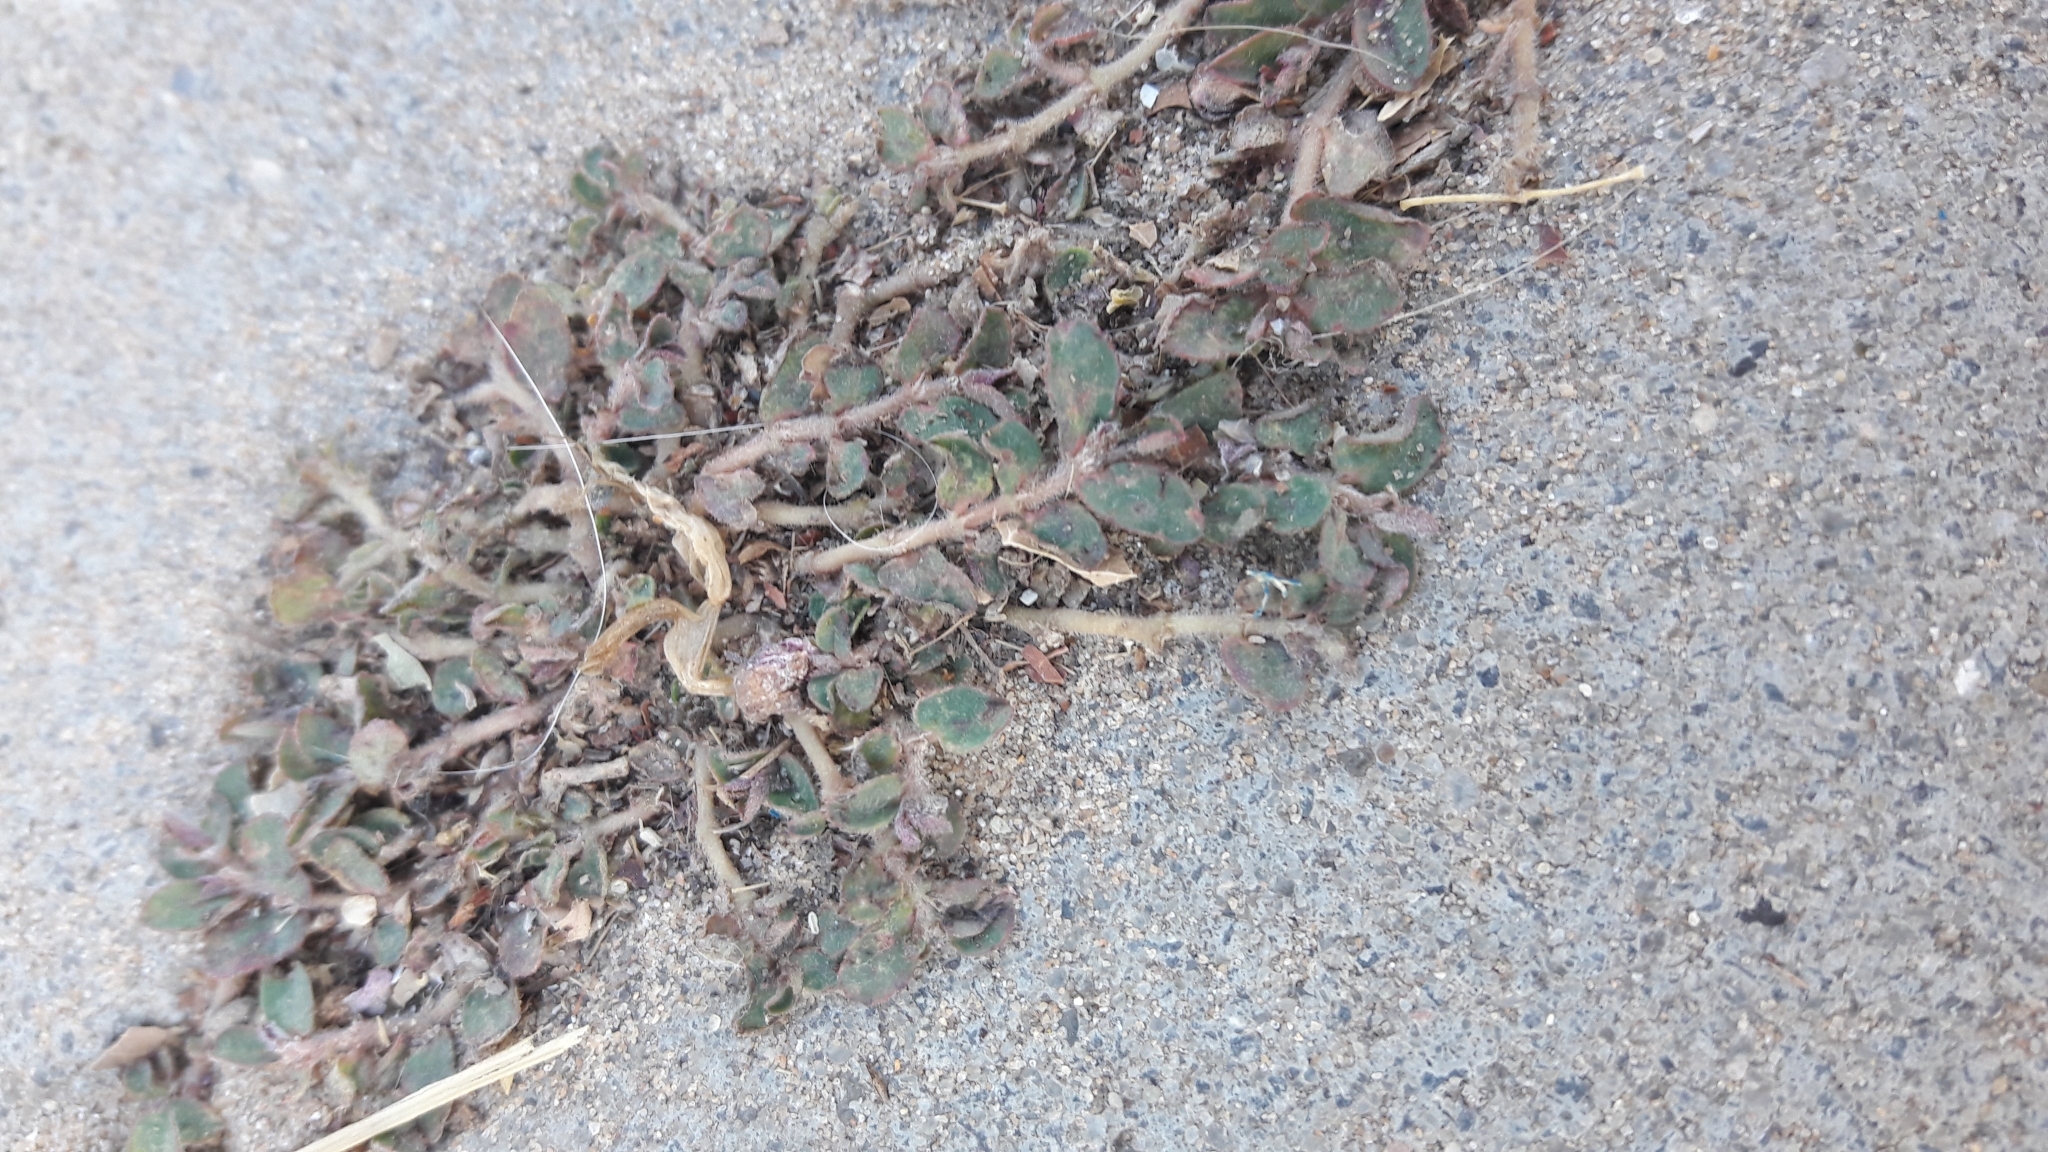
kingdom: Plantae
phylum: Tracheophyta
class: Magnoliopsida
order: Malpighiales
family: Euphorbiaceae
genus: Euphorbia
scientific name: Euphorbia maculata
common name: Spotted spurge
